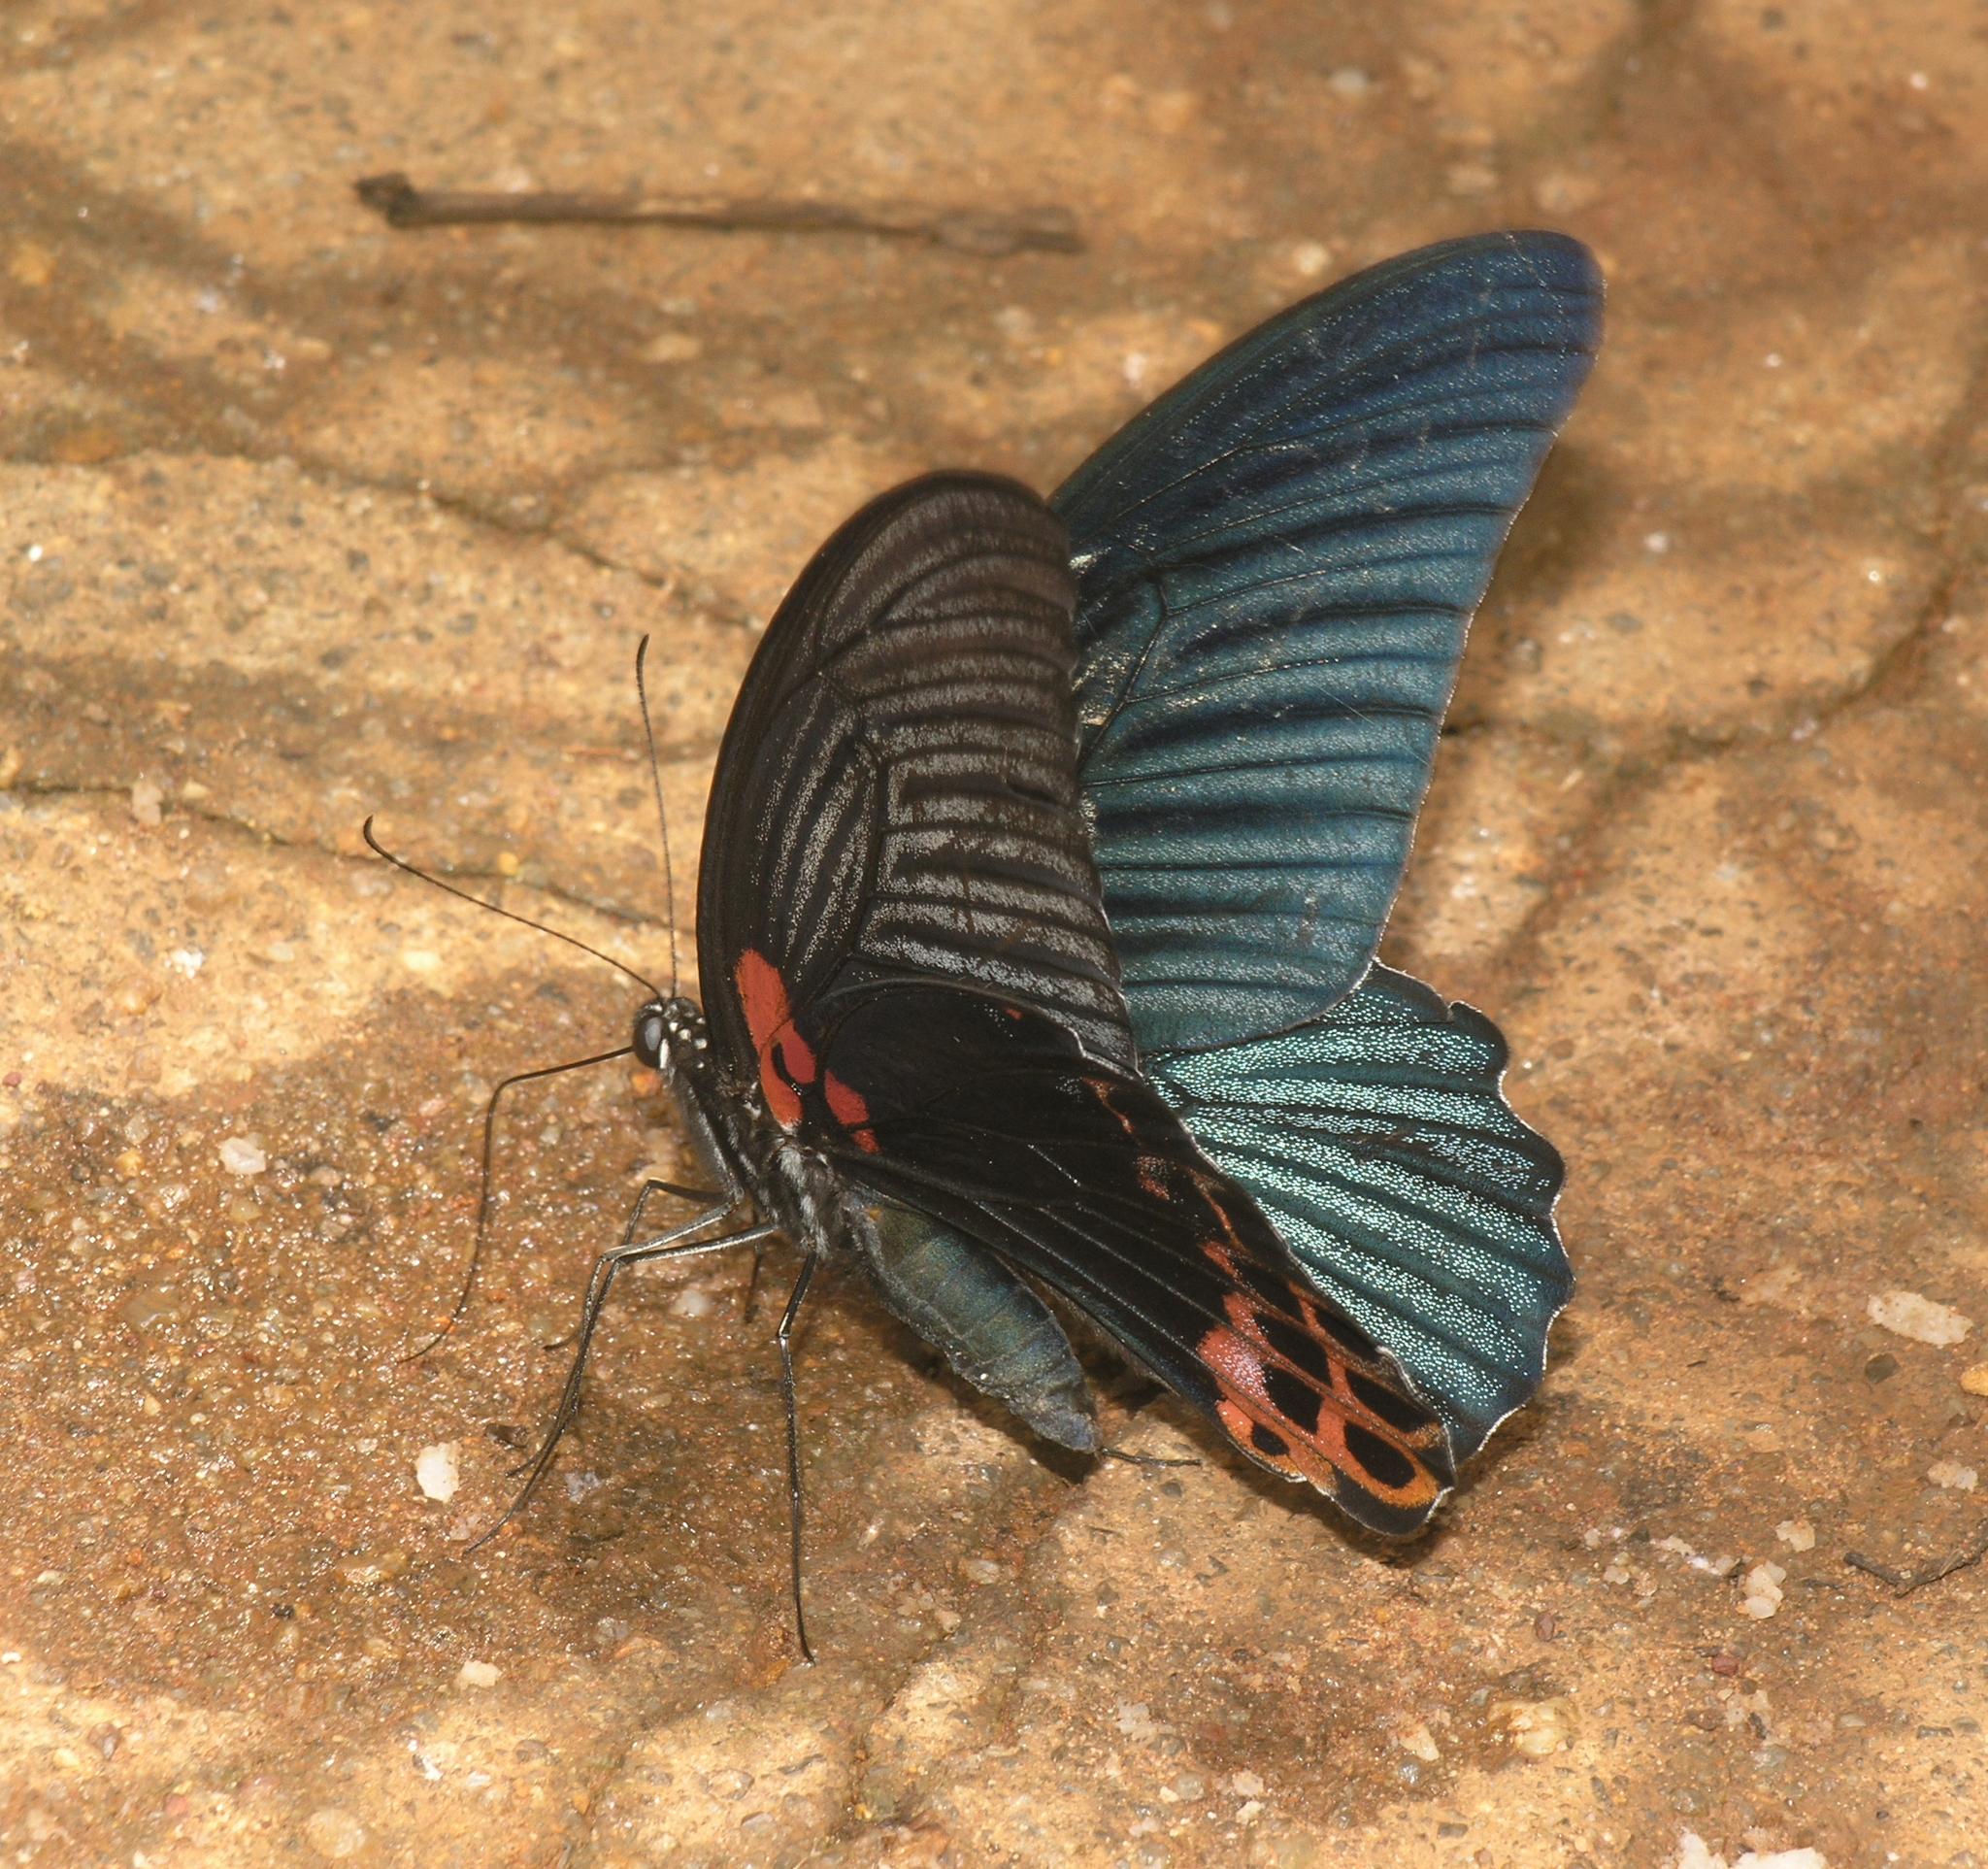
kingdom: Animalia
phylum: Arthropoda
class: Insecta
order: Lepidoptera
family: Papilionidae
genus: Papilio
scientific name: Papilio memnon
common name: Great mormon
